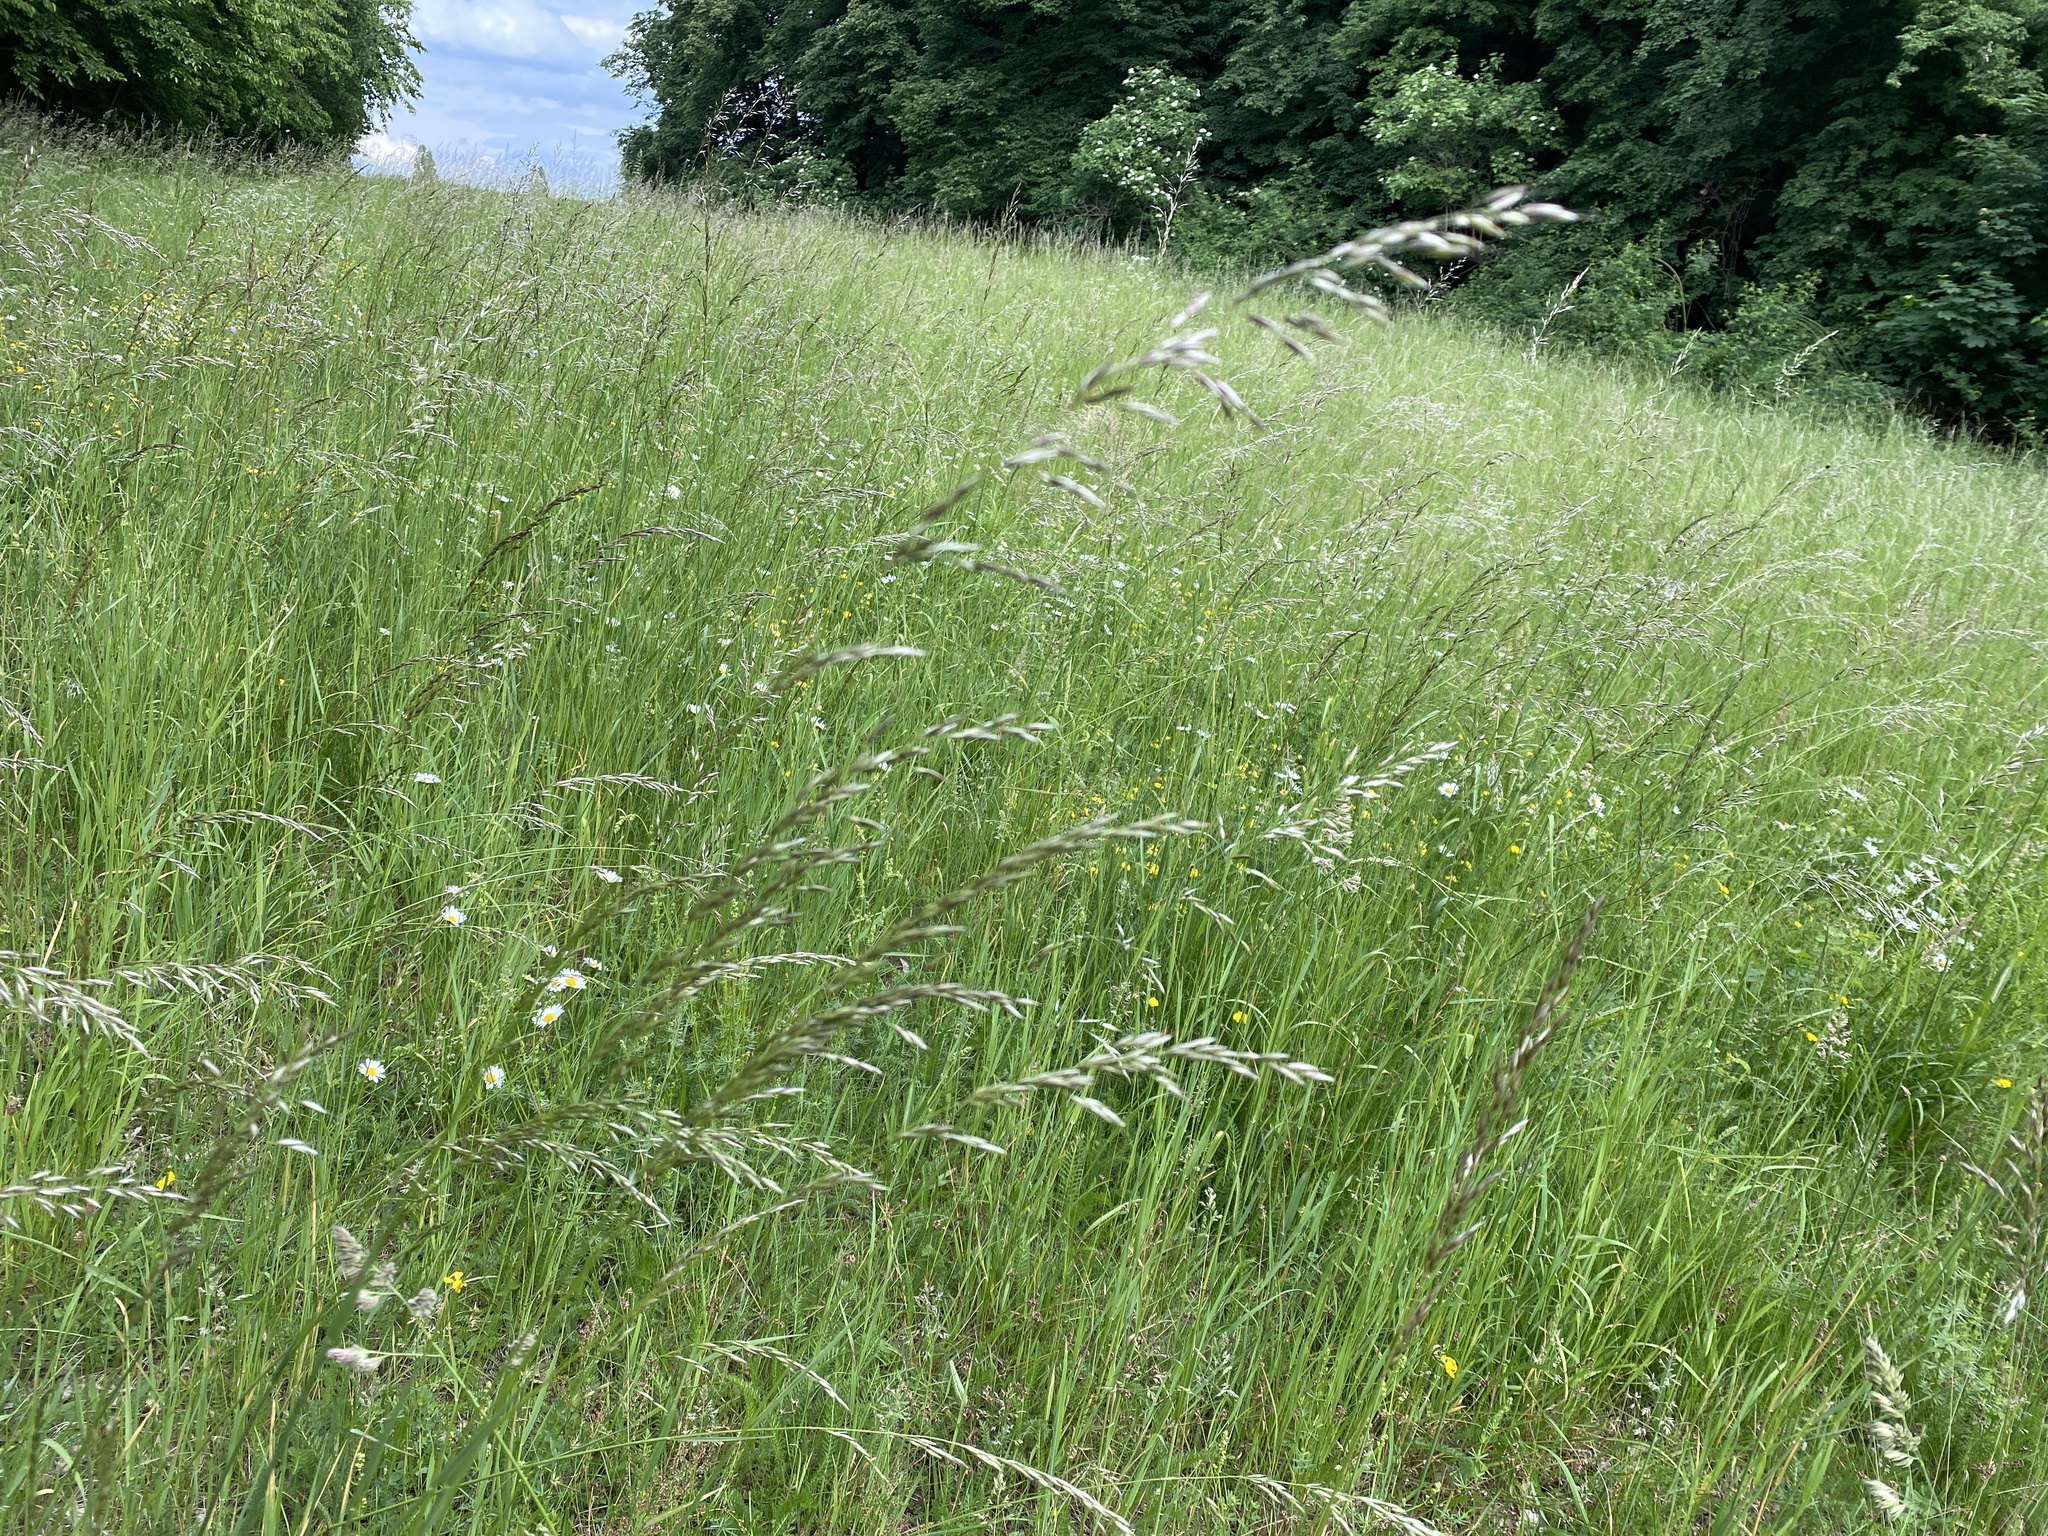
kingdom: Plantae
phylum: Tracheophyta
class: Liliopsida
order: Poales
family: Poaceae
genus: Arrhenatherum
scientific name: Arrhenatherum elatius
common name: Tall oatgrass
